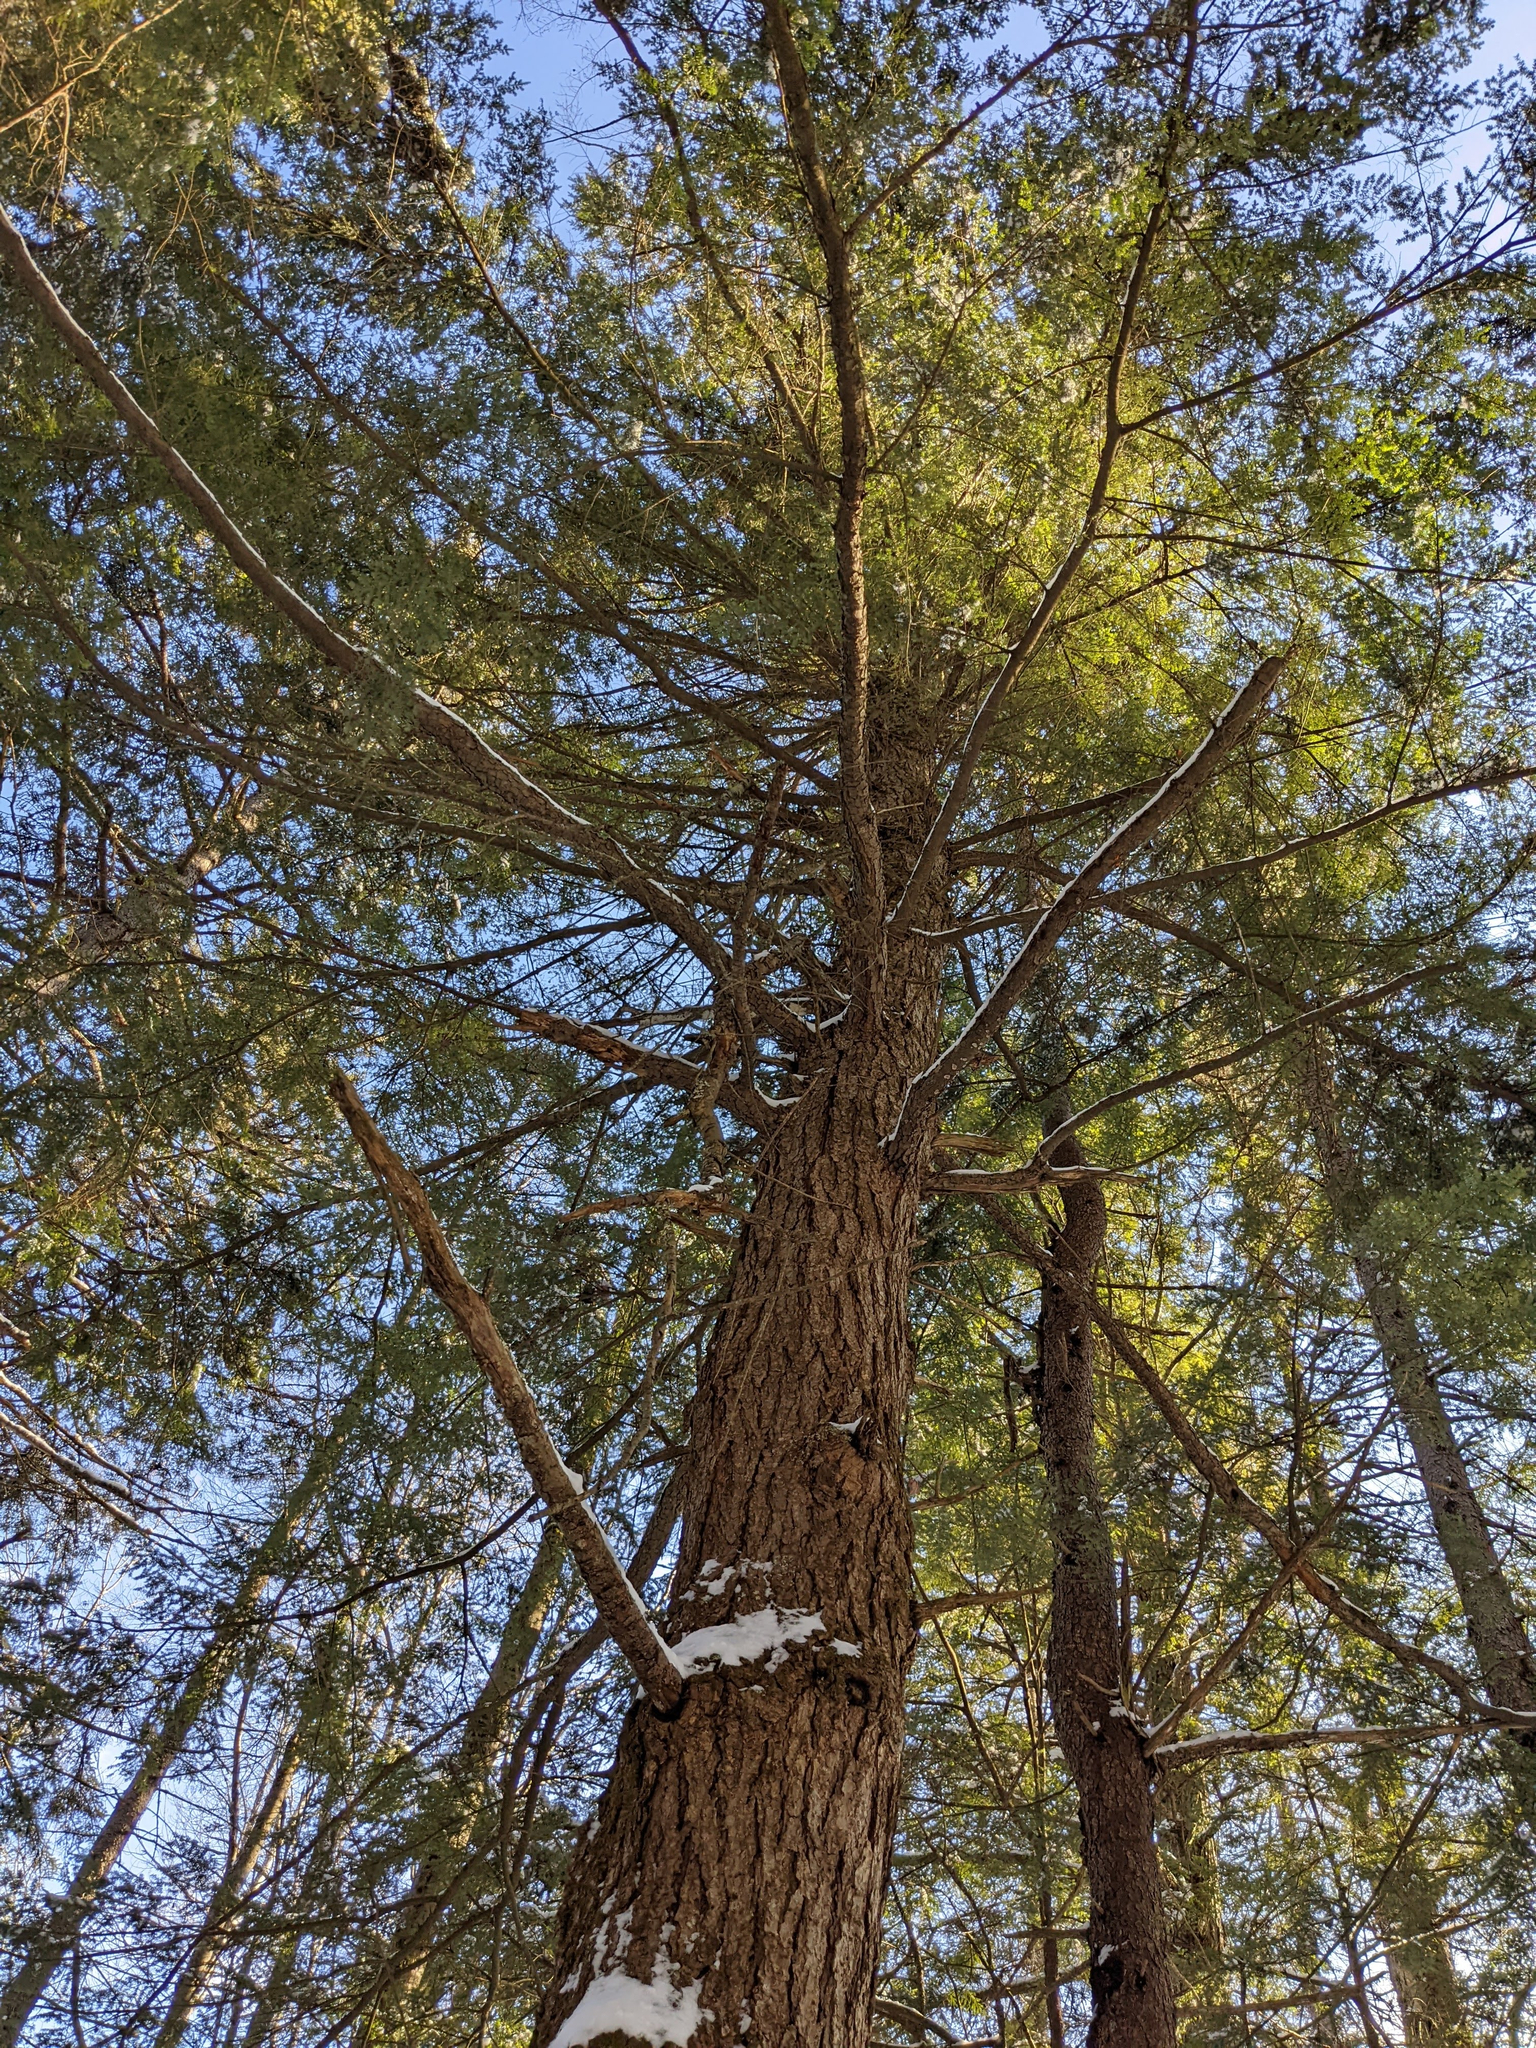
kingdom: Plantae
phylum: Tracheophyta
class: Pinopsida
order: Pinales
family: Pinaceae
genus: Tsuga
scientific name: Tsuga canadensis
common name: Eastern hemlock
